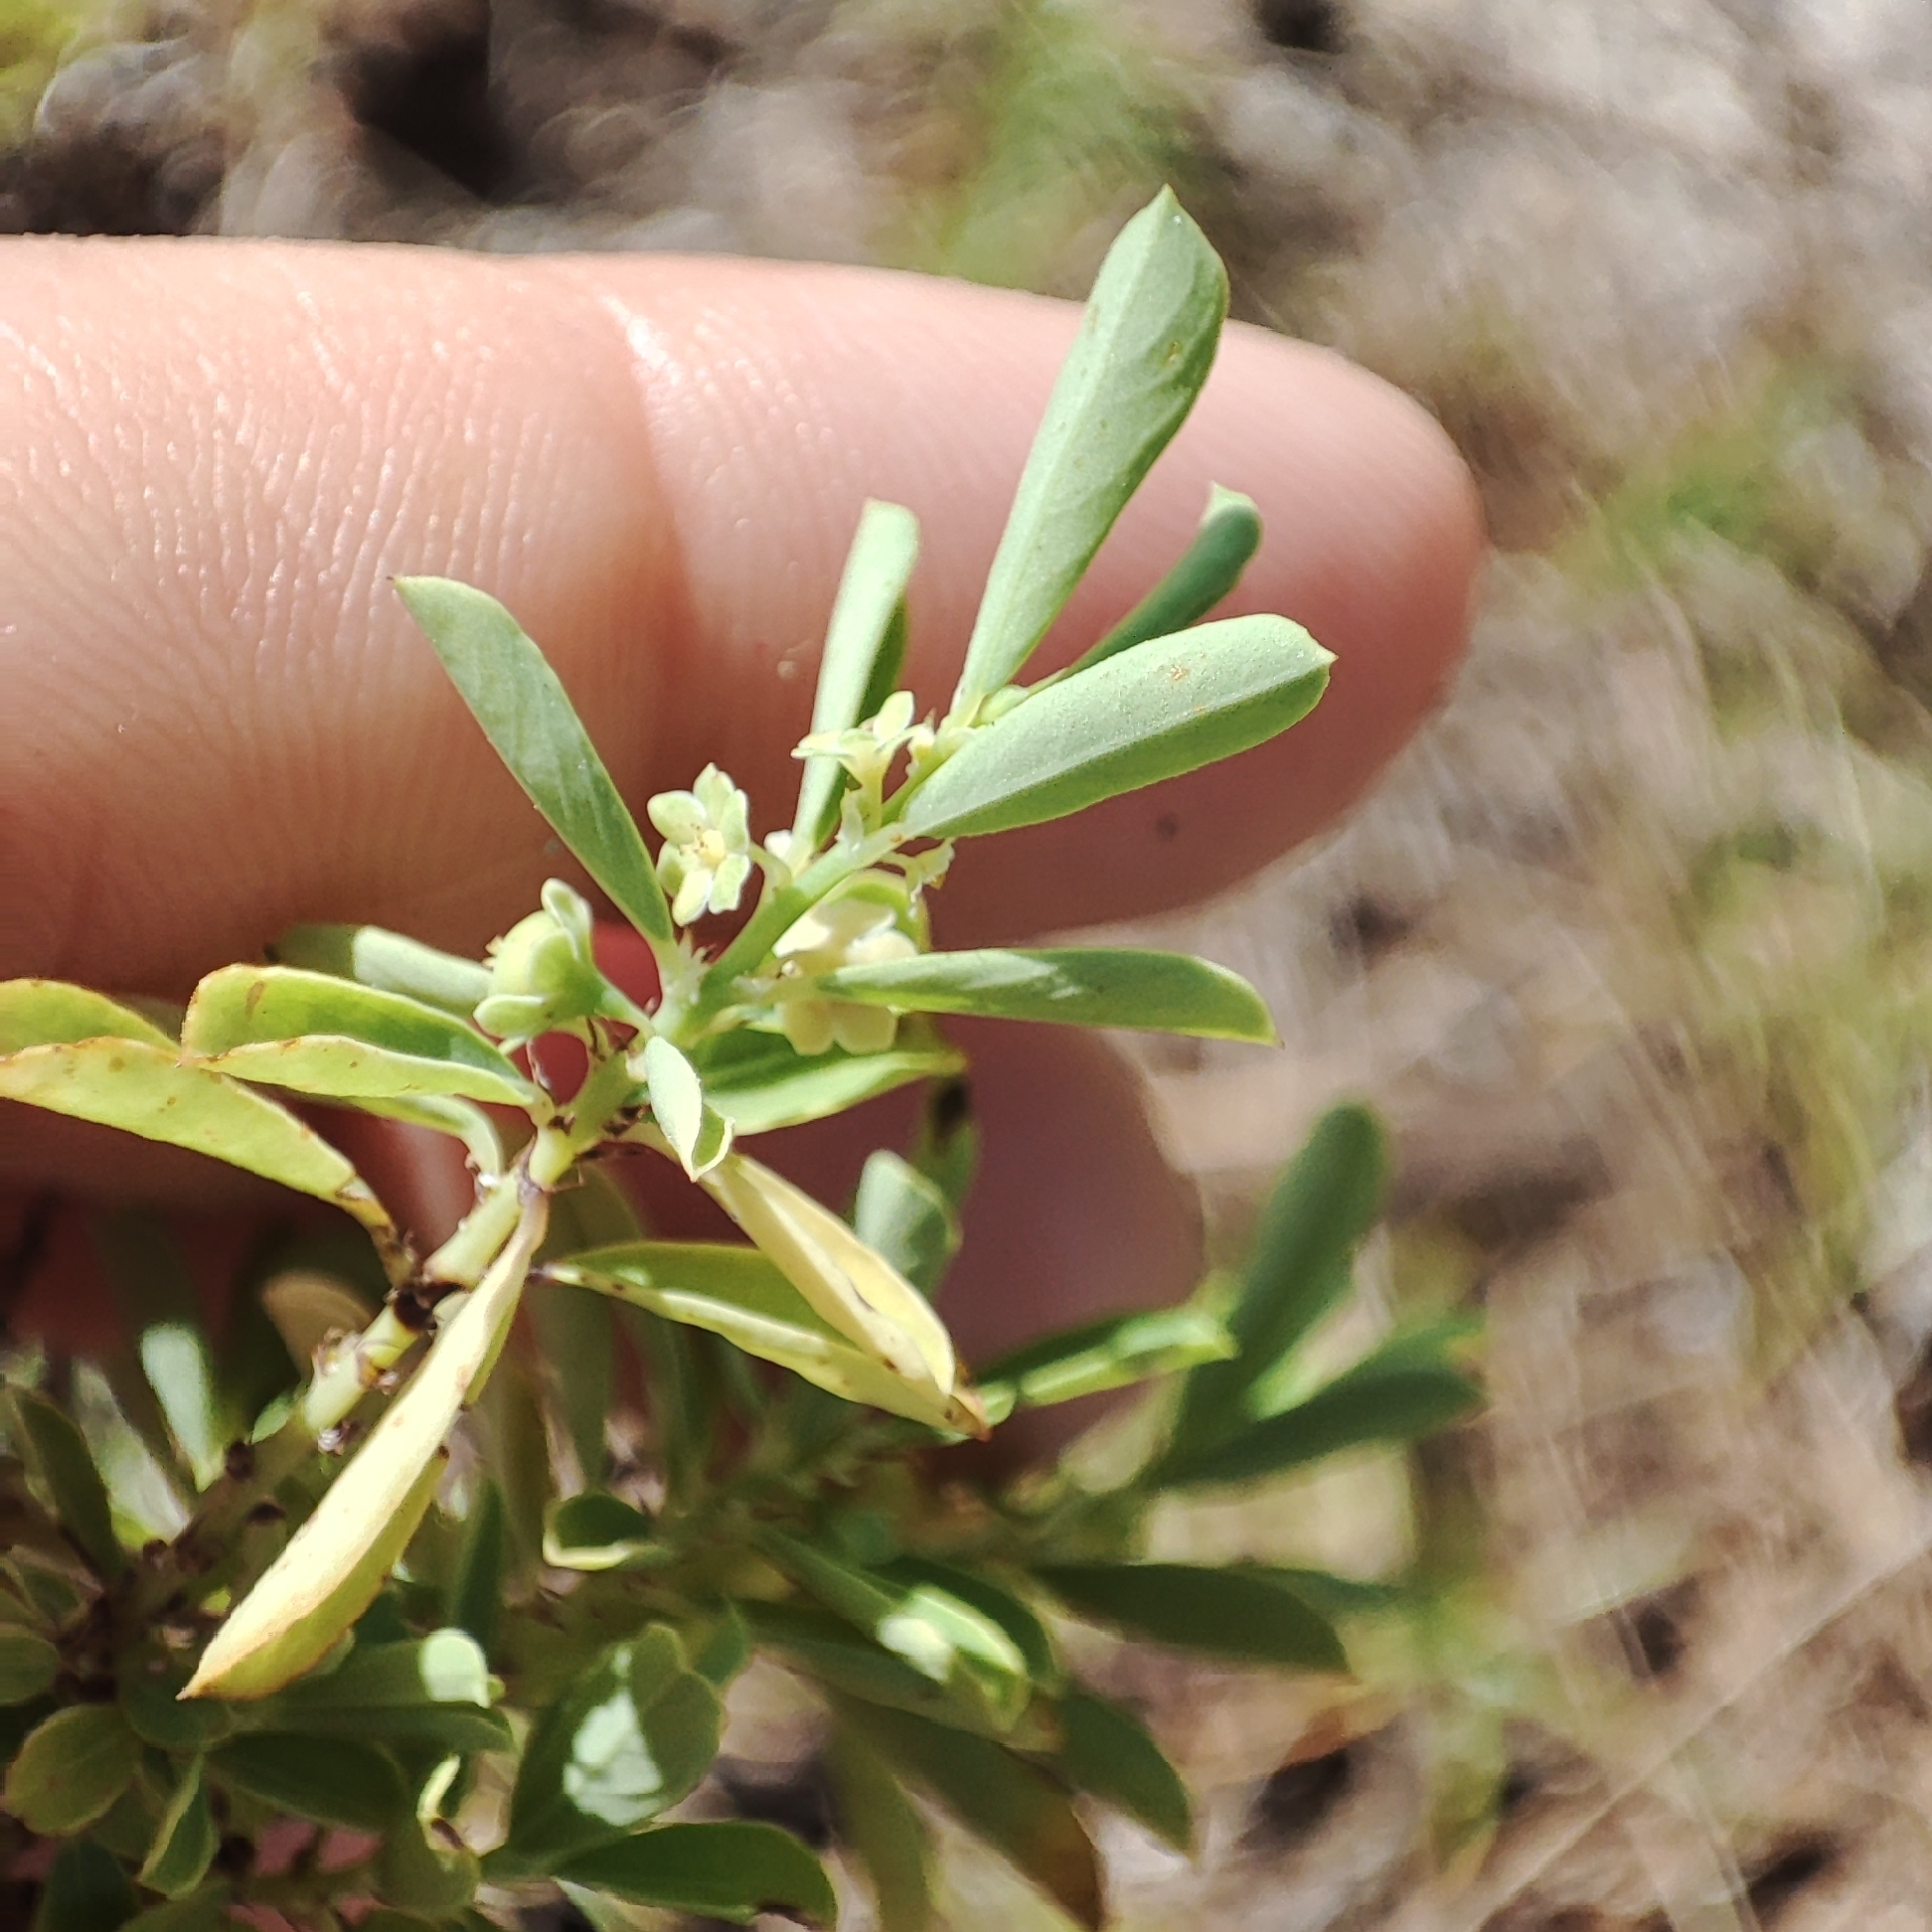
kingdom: Plantae
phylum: Tracheophyta
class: Magnoliopsida
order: Malpighiales
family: Phyllanthaceae
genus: Phyllanthus
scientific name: Phyllanthus polygonoides
